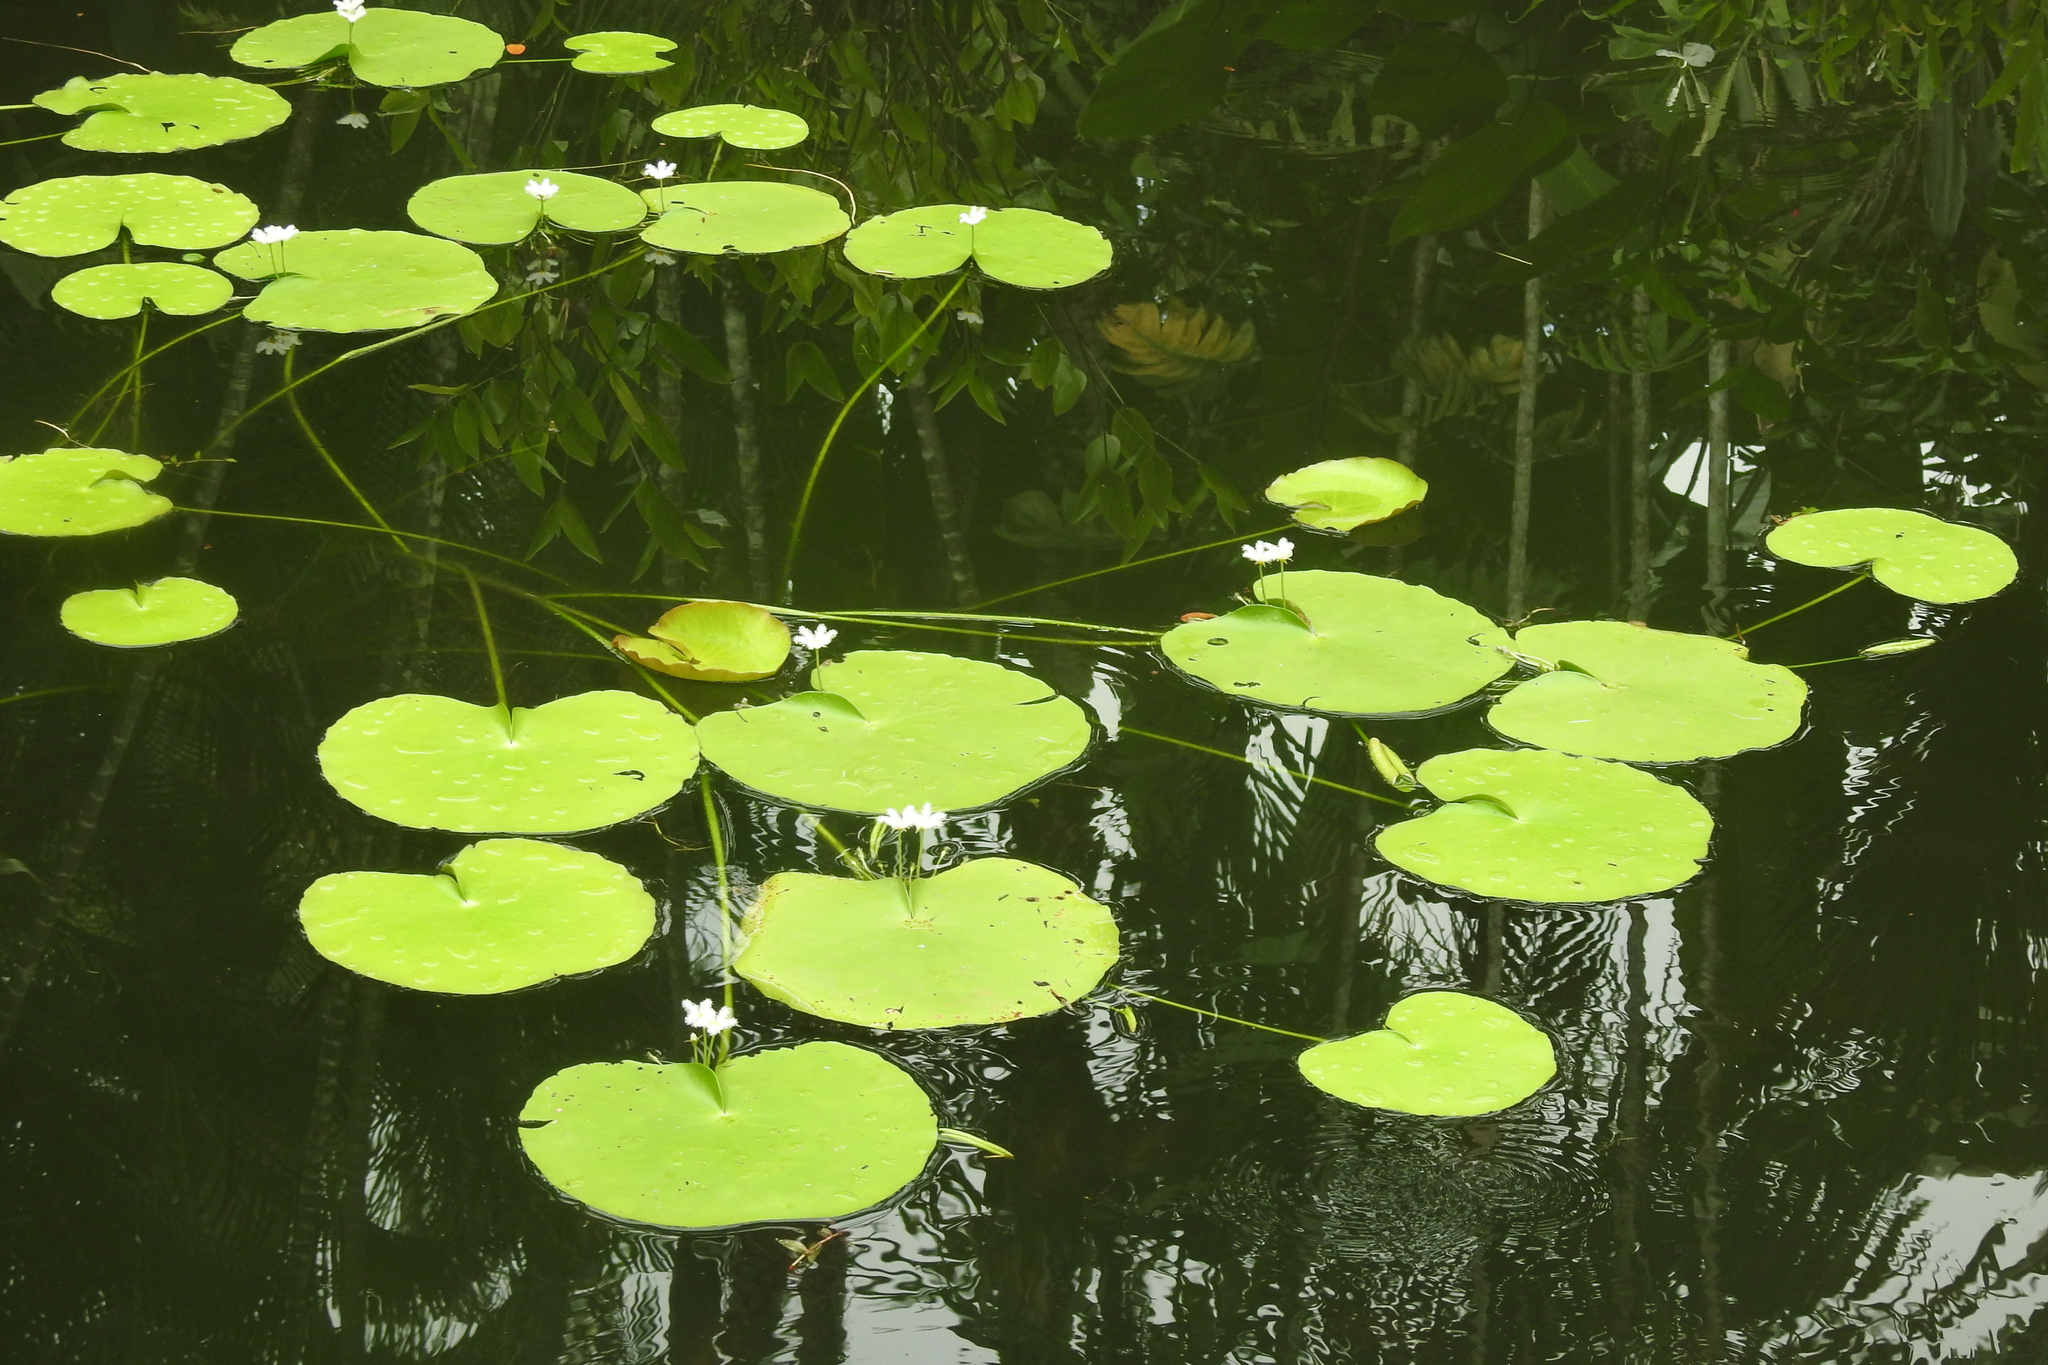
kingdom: Plantae
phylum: Tracheophyta
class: Magnoliopsida
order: Asterales
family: Menyanthaceae
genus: Nymphoides
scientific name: Nymphoides indica
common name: Water-snowflake
